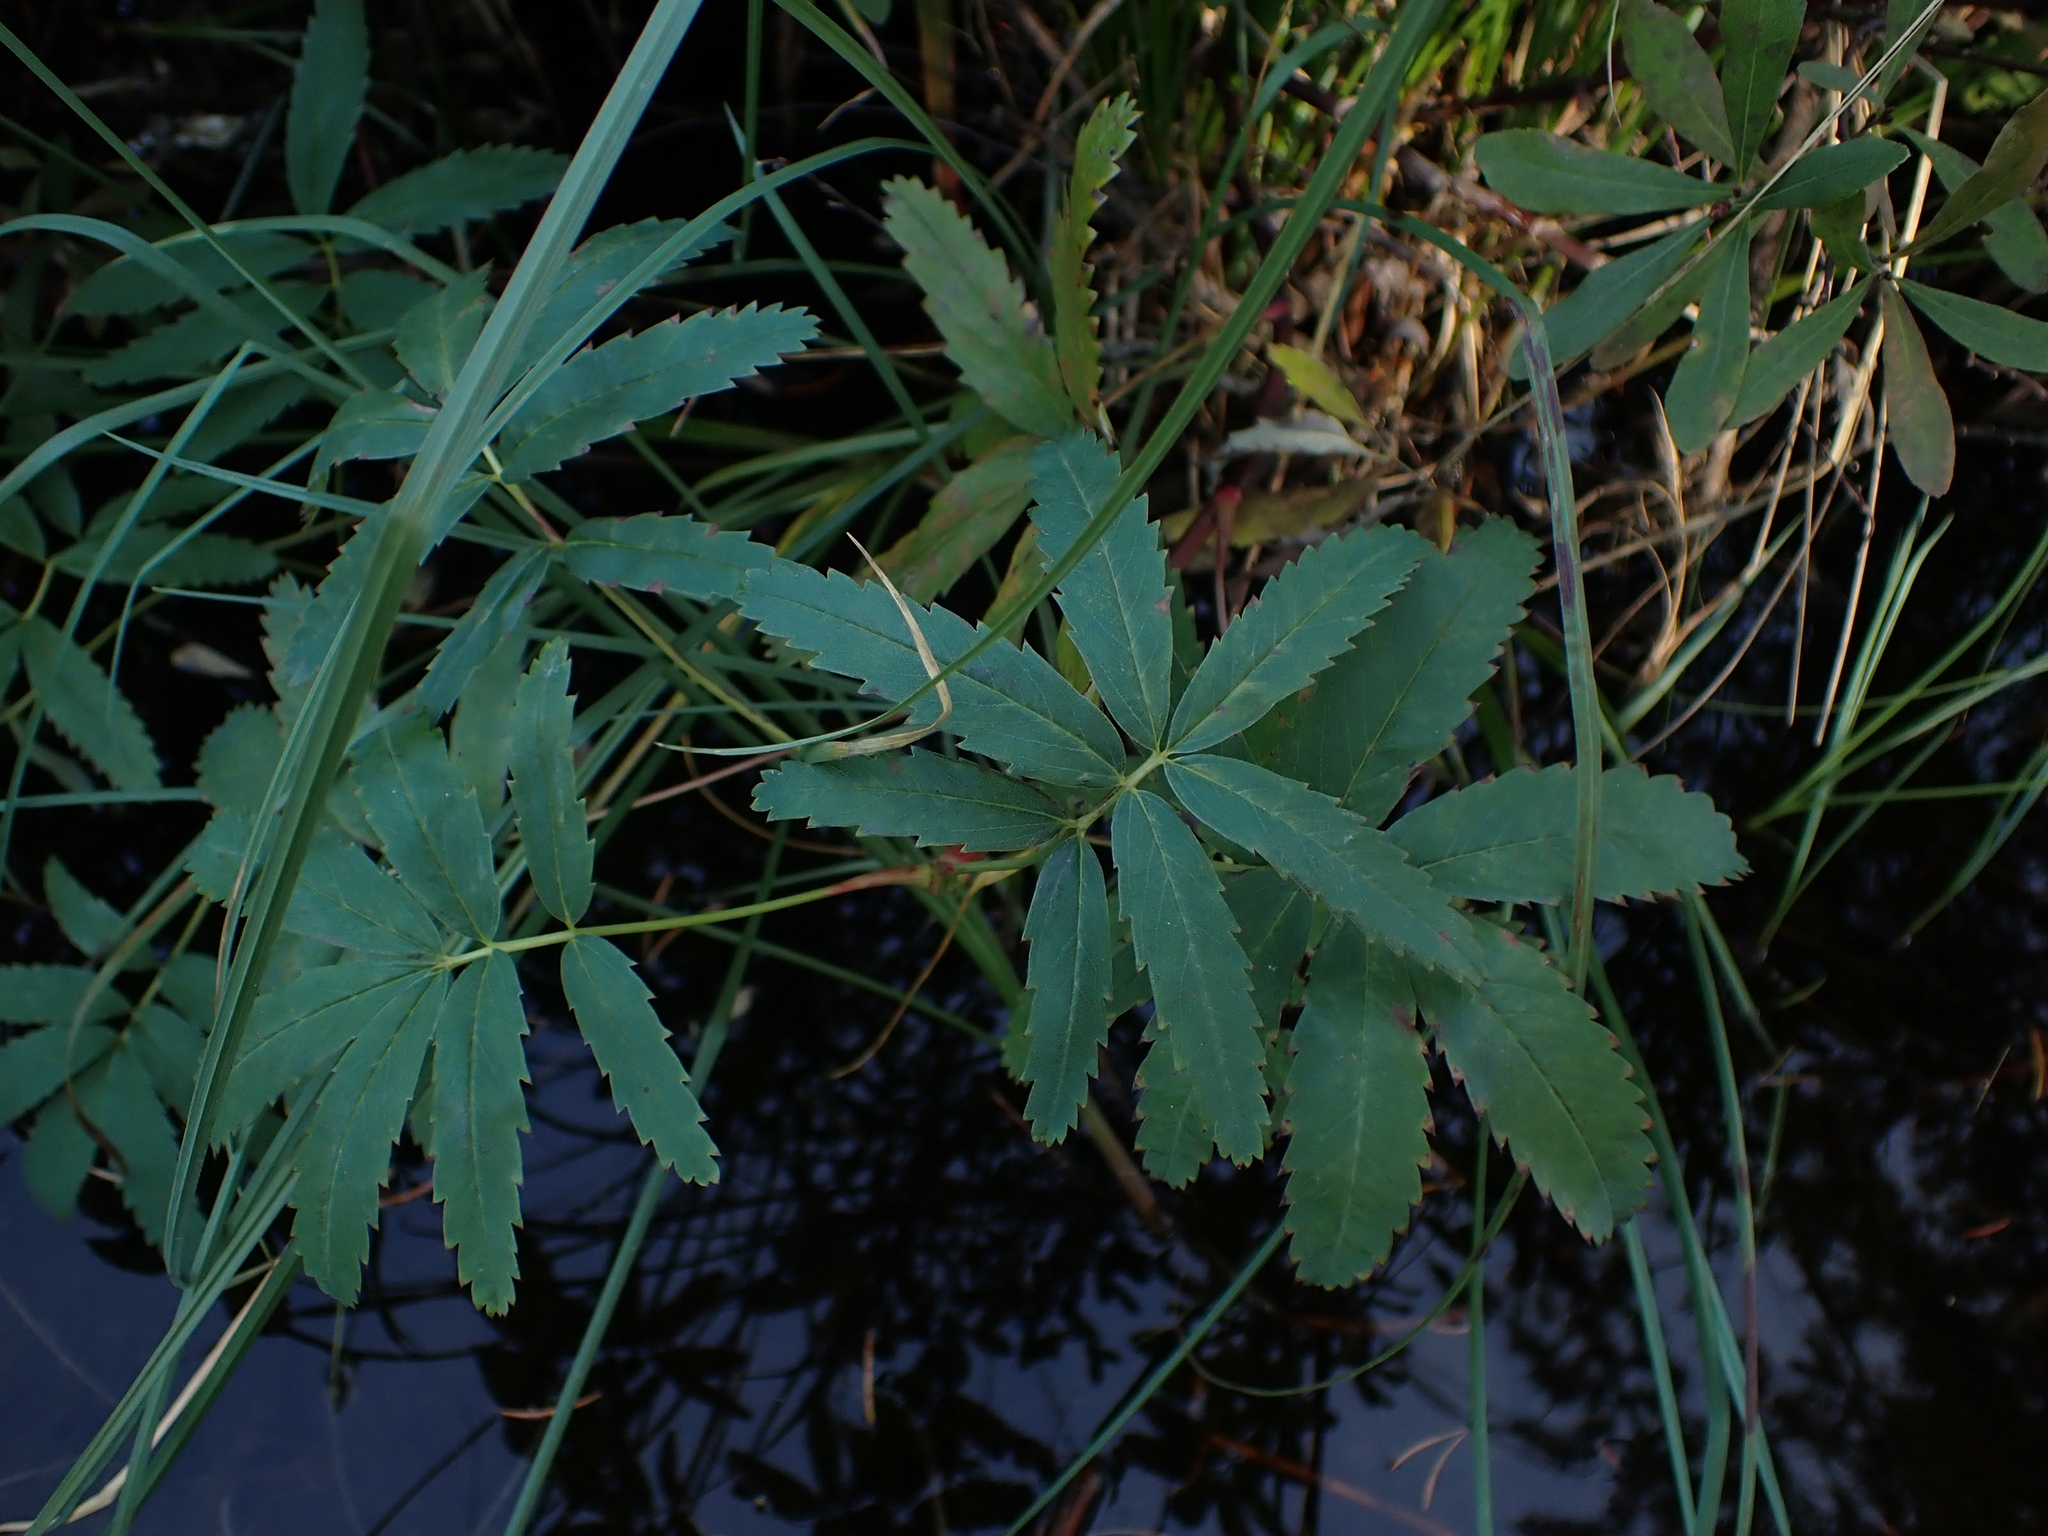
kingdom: Plantae
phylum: Tracheophyta
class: Magnoliopsida
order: Rosales
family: Rosaceae
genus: Comarum
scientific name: Comarum palustre
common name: Marsh cinquefoil
